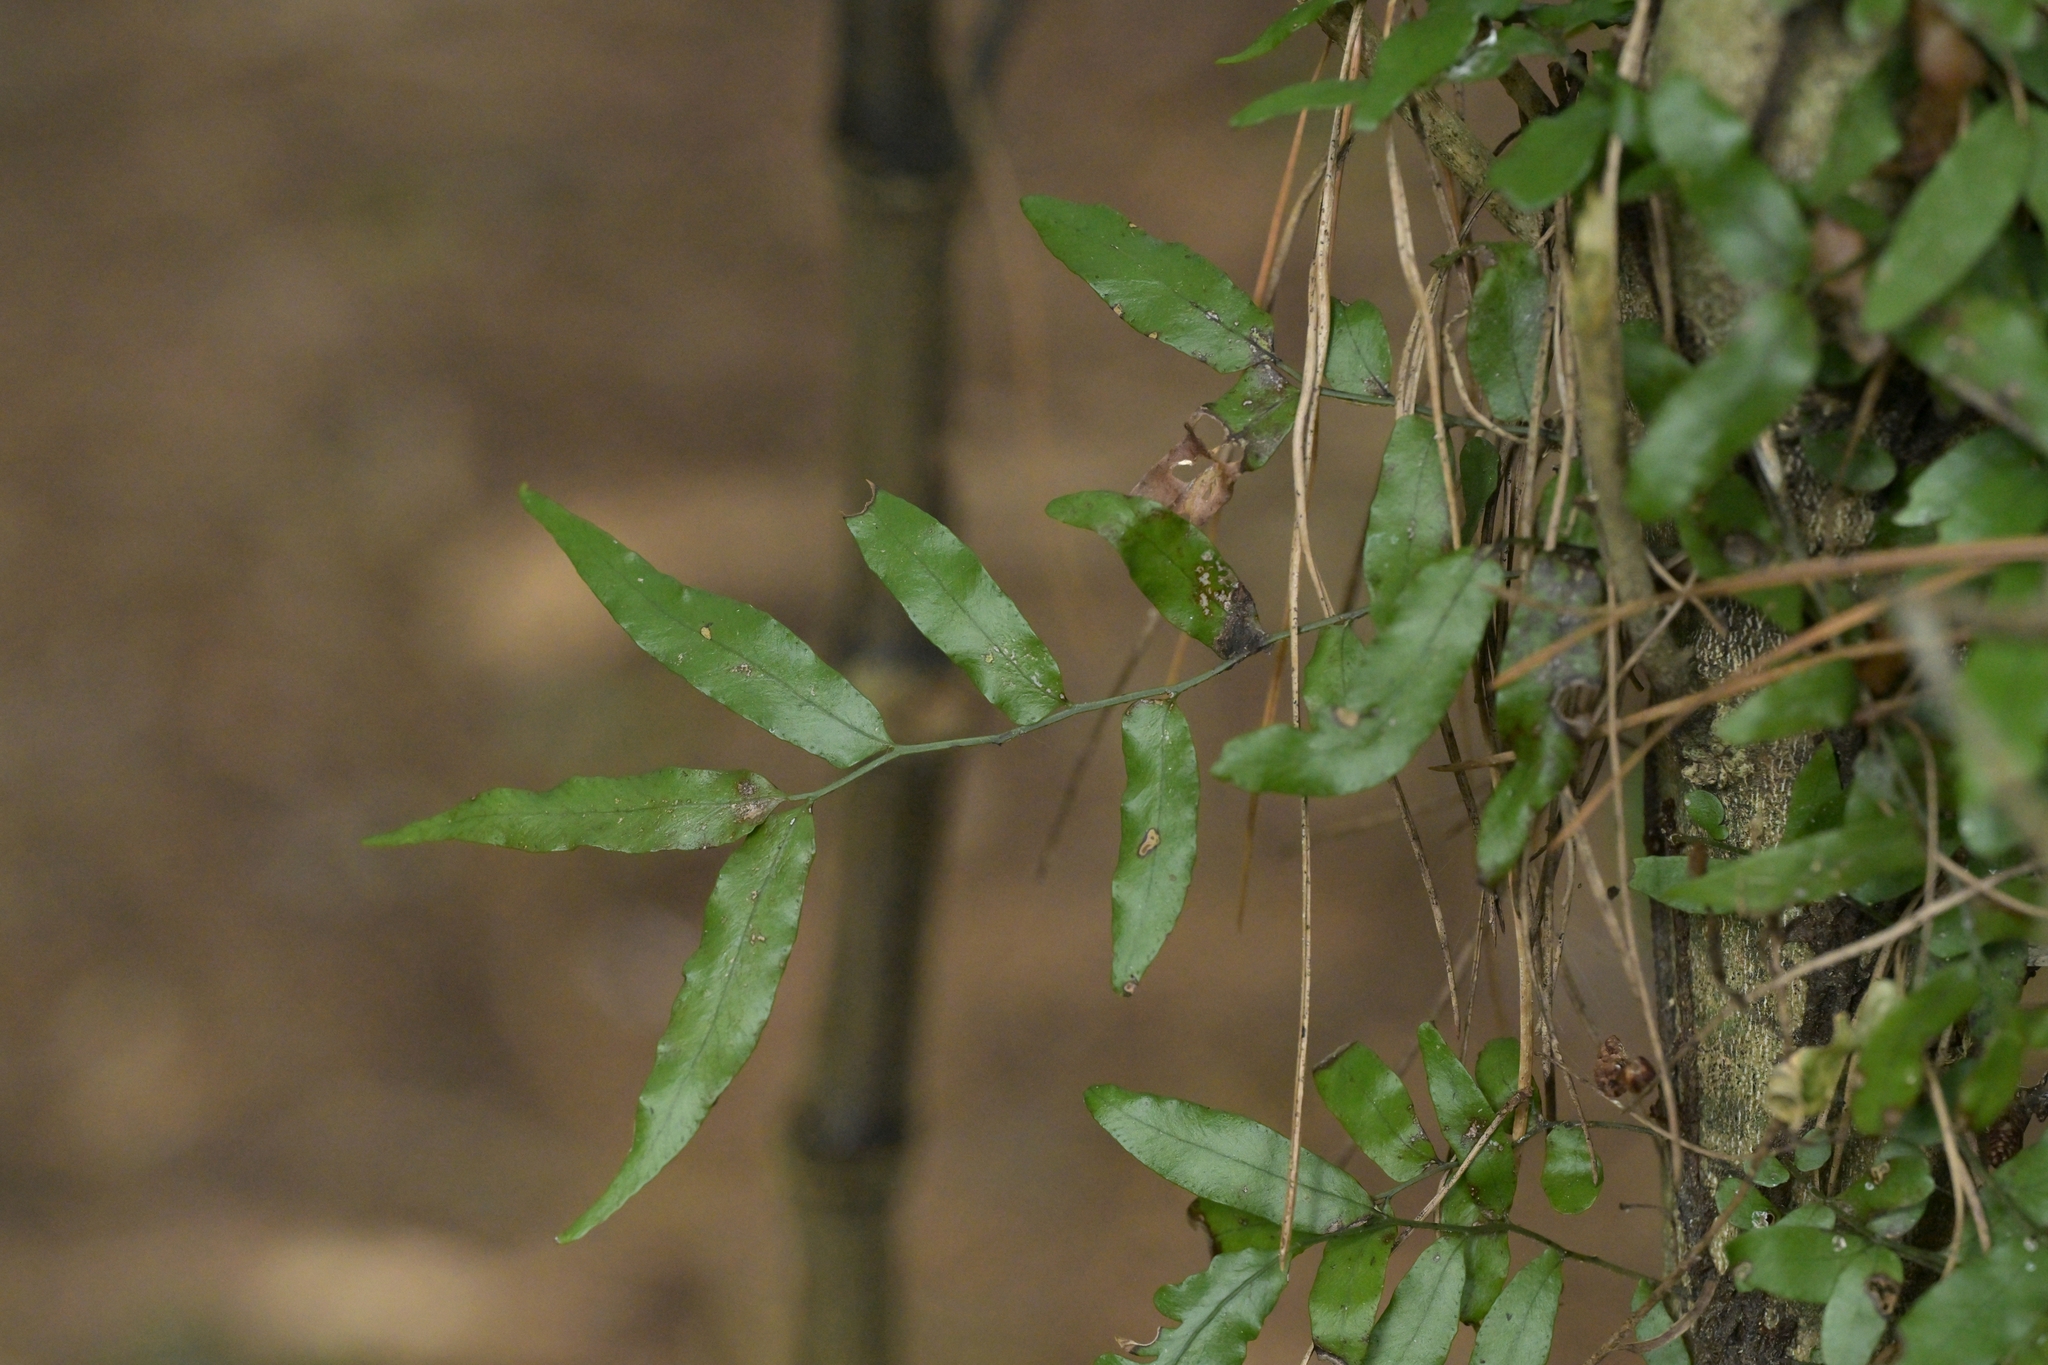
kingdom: Plantae
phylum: Tracheophyta
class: Polypodiopsida
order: Polypodiales
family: Tectariaceae
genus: Arthropteris
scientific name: Arthropteris tenella
